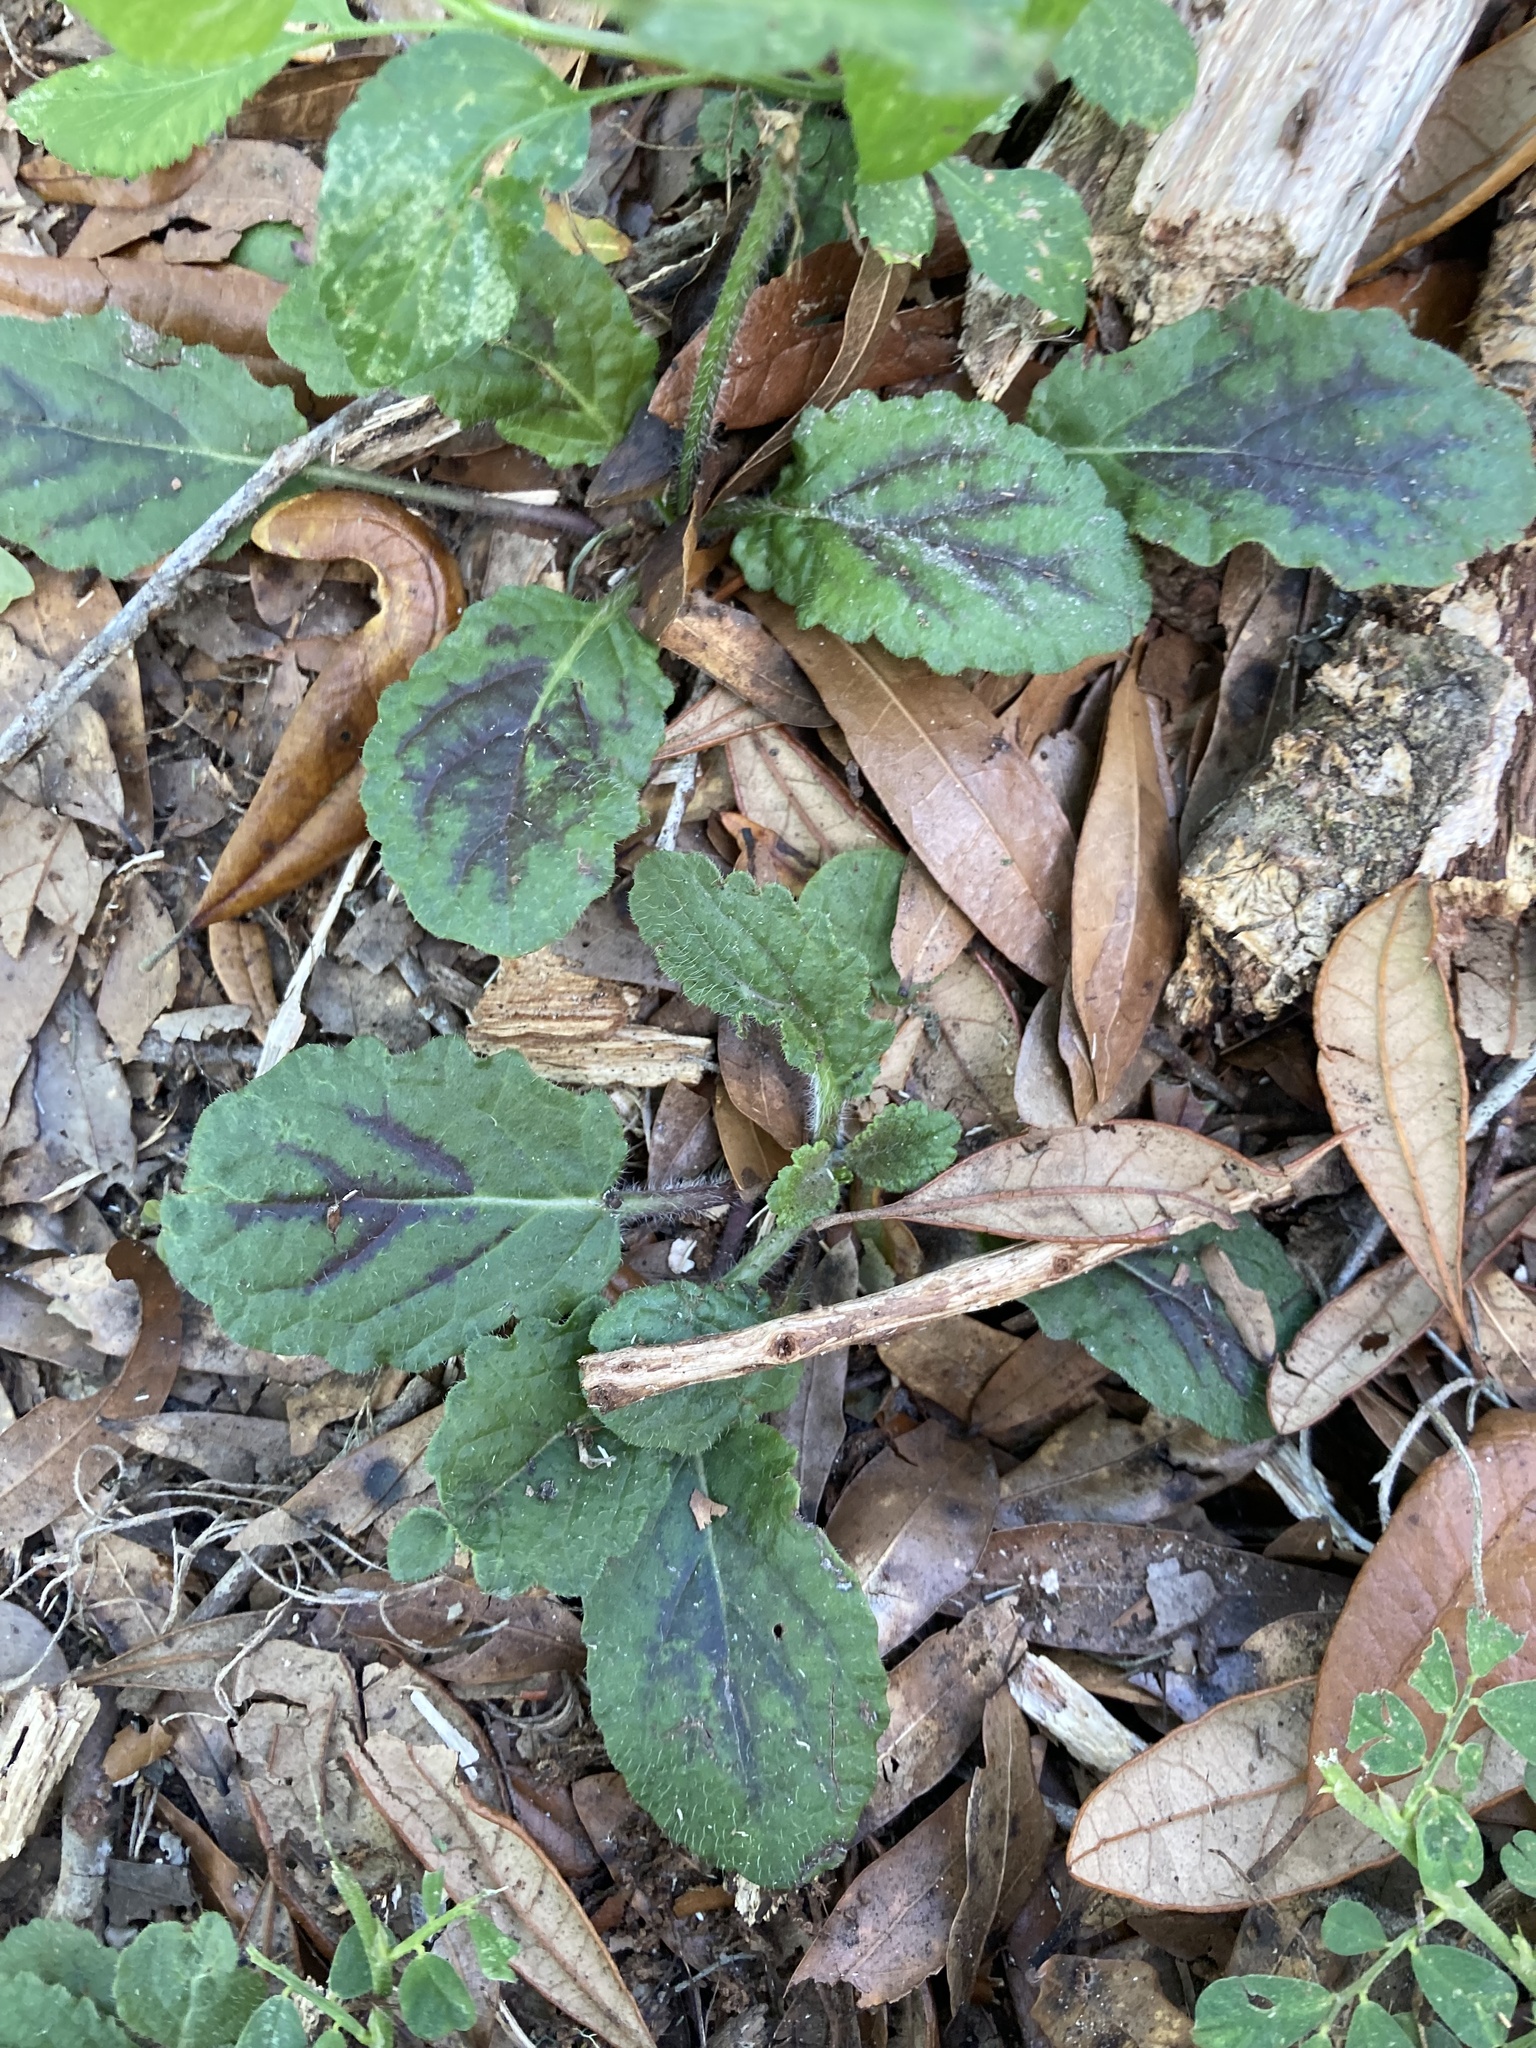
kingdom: Plantae
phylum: Tracheophyta
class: Magnoliopsida
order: Lamiales
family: Lamiaceae
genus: Salvia
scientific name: Salvia lyrata
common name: Cancerweed
